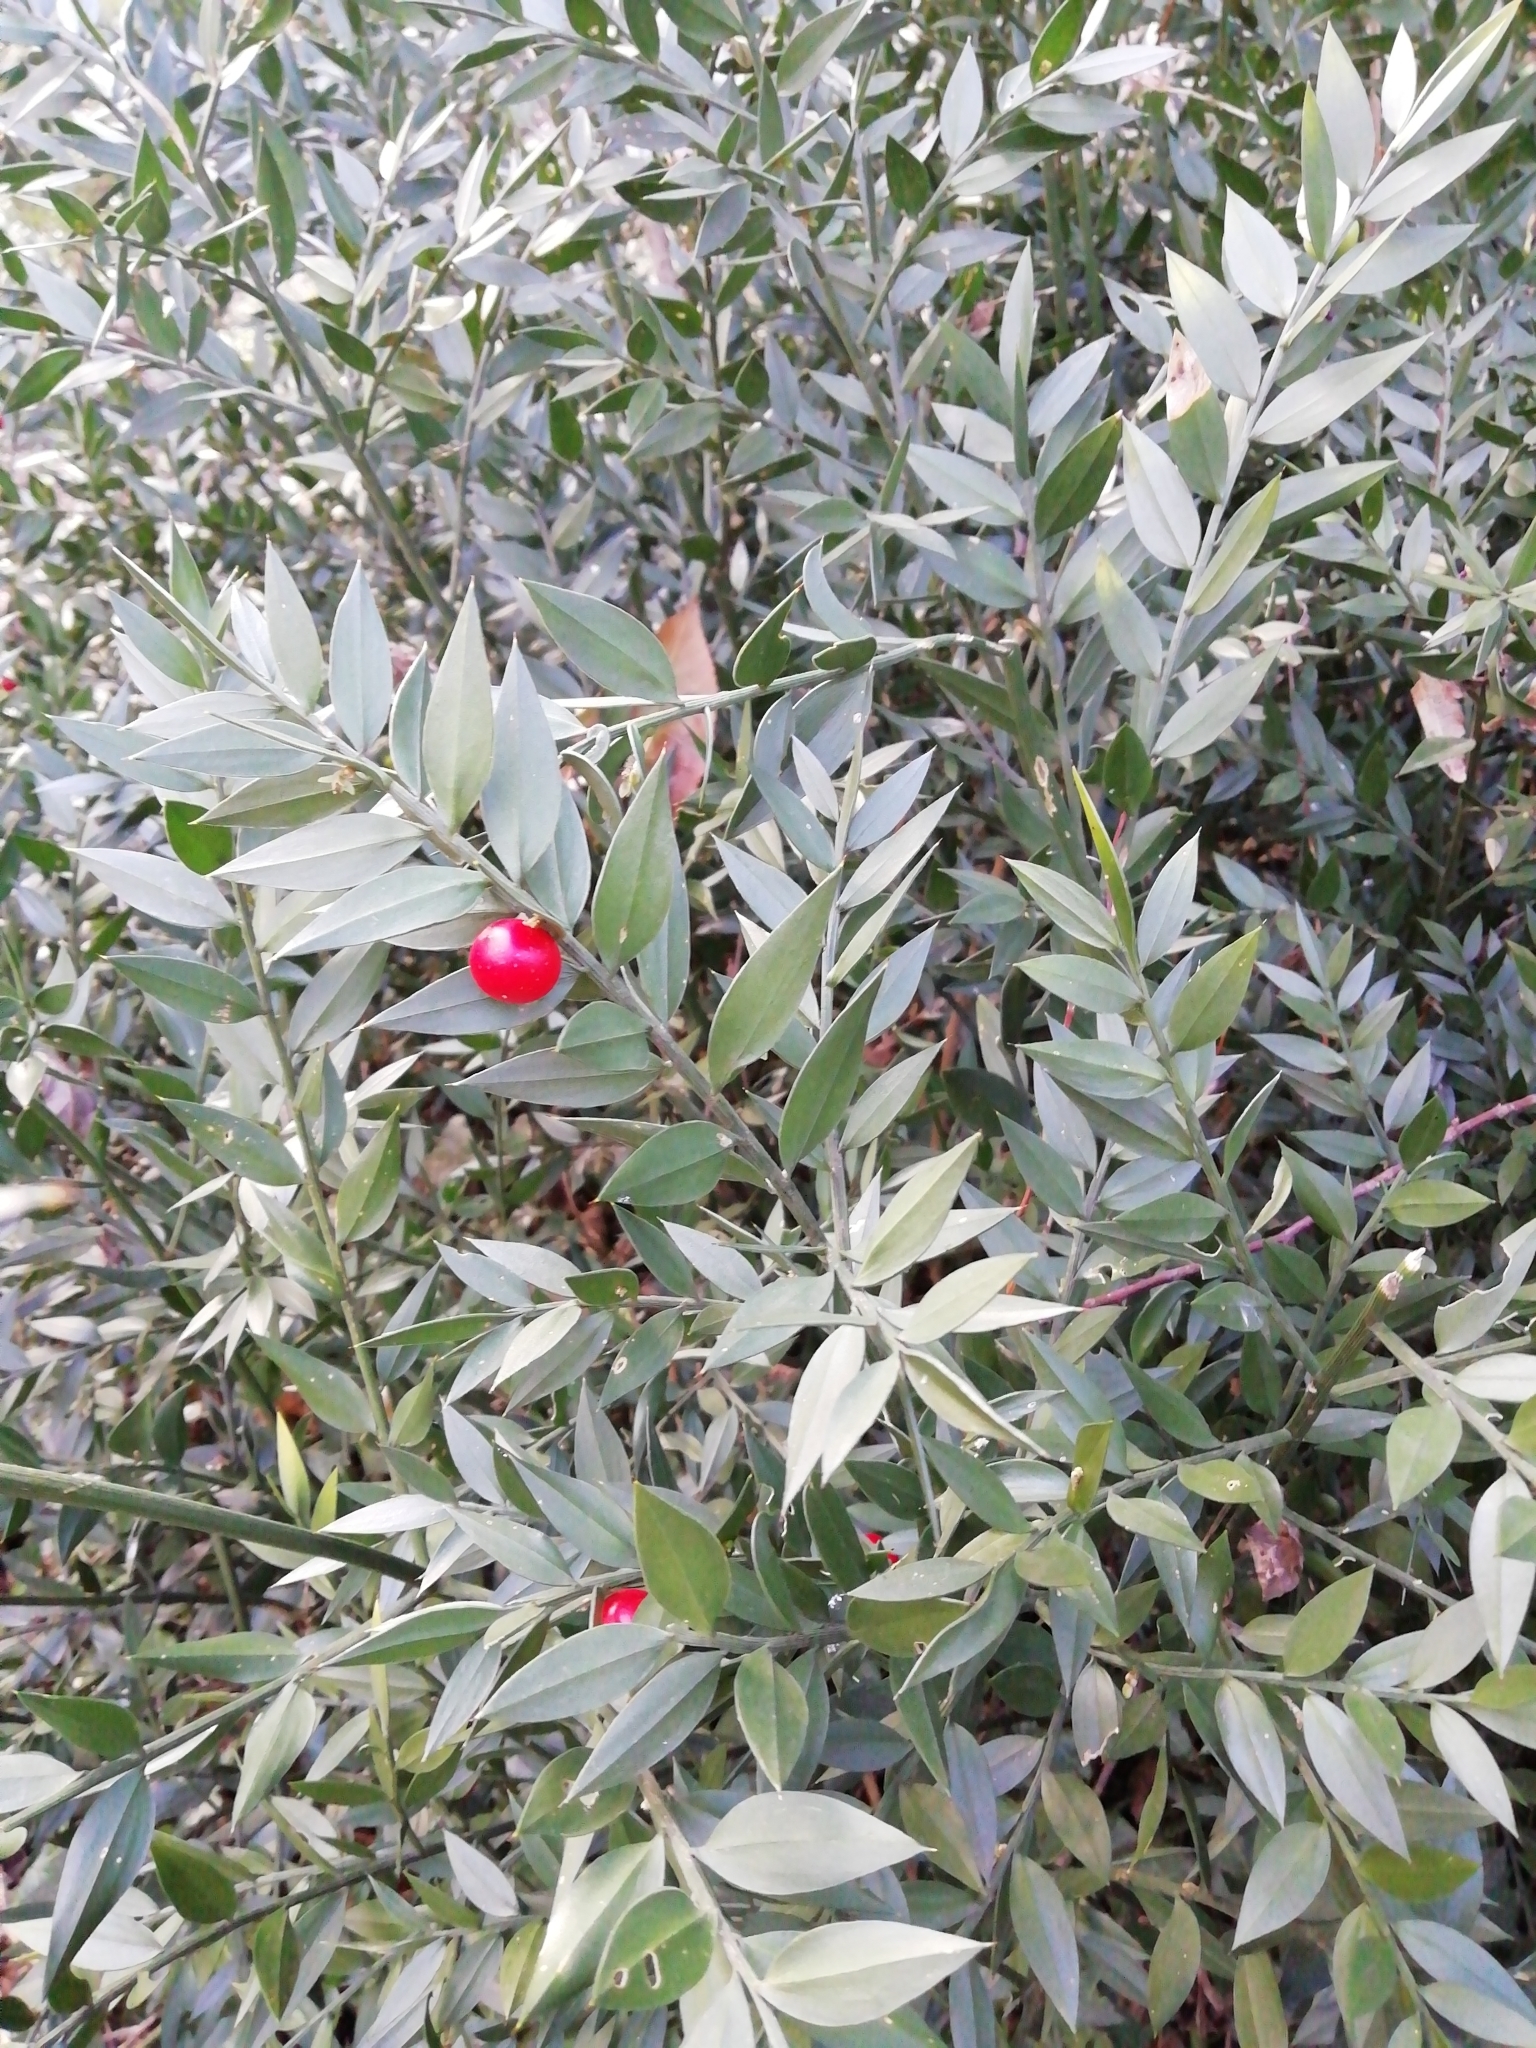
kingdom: Plantae
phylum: Tracheophyta
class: Liliopsida
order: Asparagales
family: Asparagaceae
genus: Ruscus
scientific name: Ruscus aculeatus
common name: Butcher's-broom
